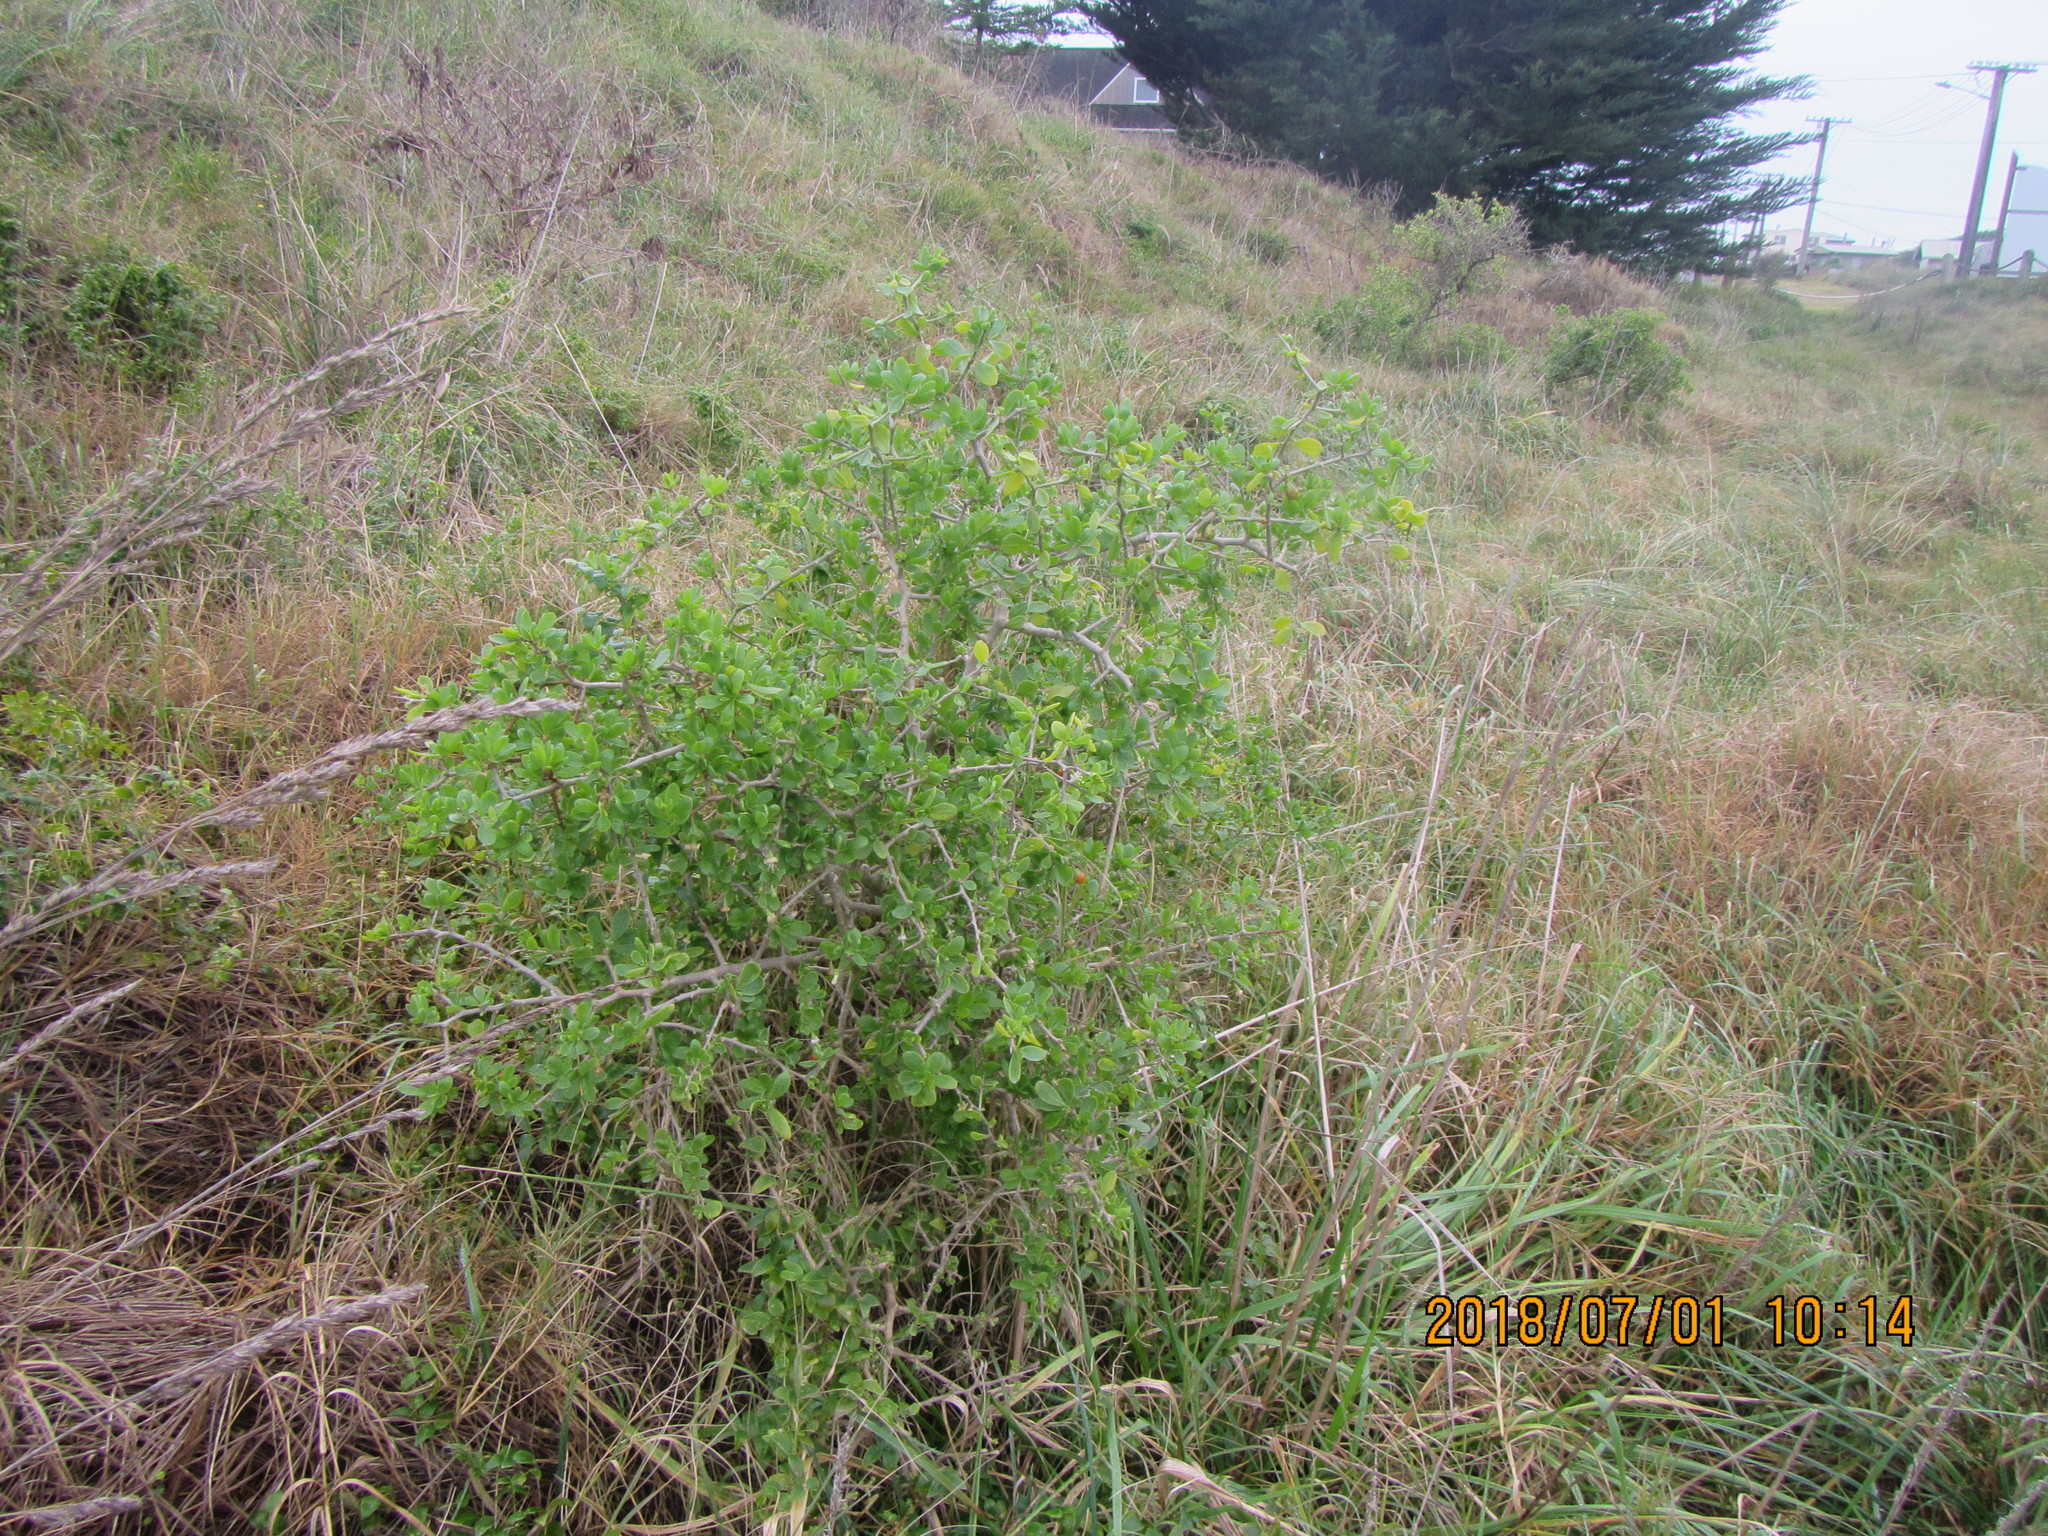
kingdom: Plantae
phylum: Tracheophyta
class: Magnoliopsida
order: Solanales
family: Solanaceae
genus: Lycium
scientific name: Lycium ferocissimum
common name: African boxthorn
